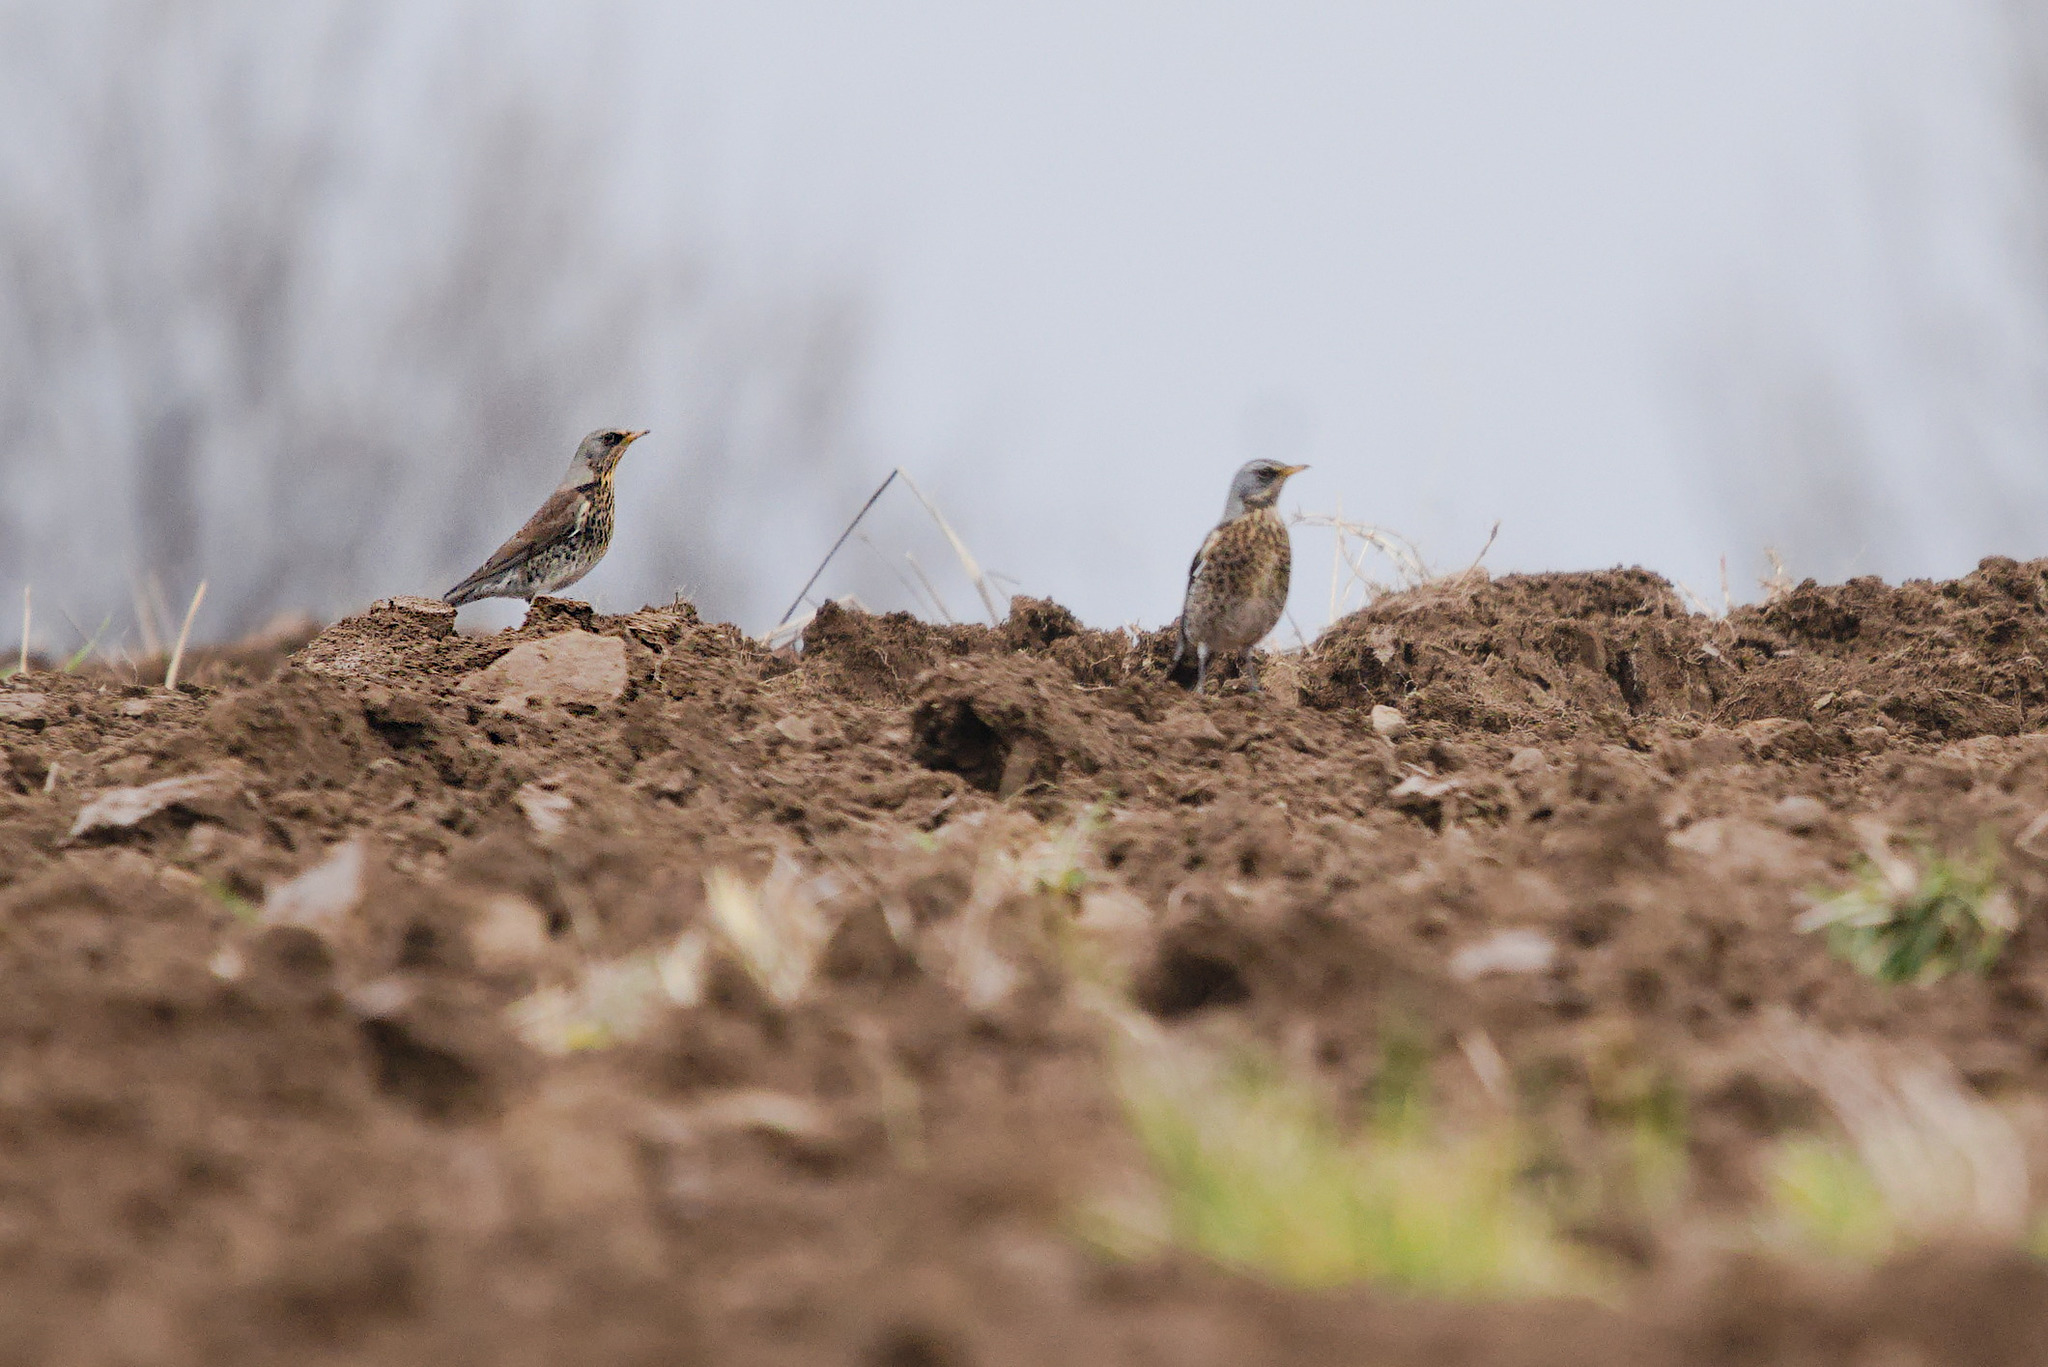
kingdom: Animalia
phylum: Chordata
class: Aves
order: Passeriformes
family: Turdidae
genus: Turdus
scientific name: Turdus pilaris
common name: Fieldfare
